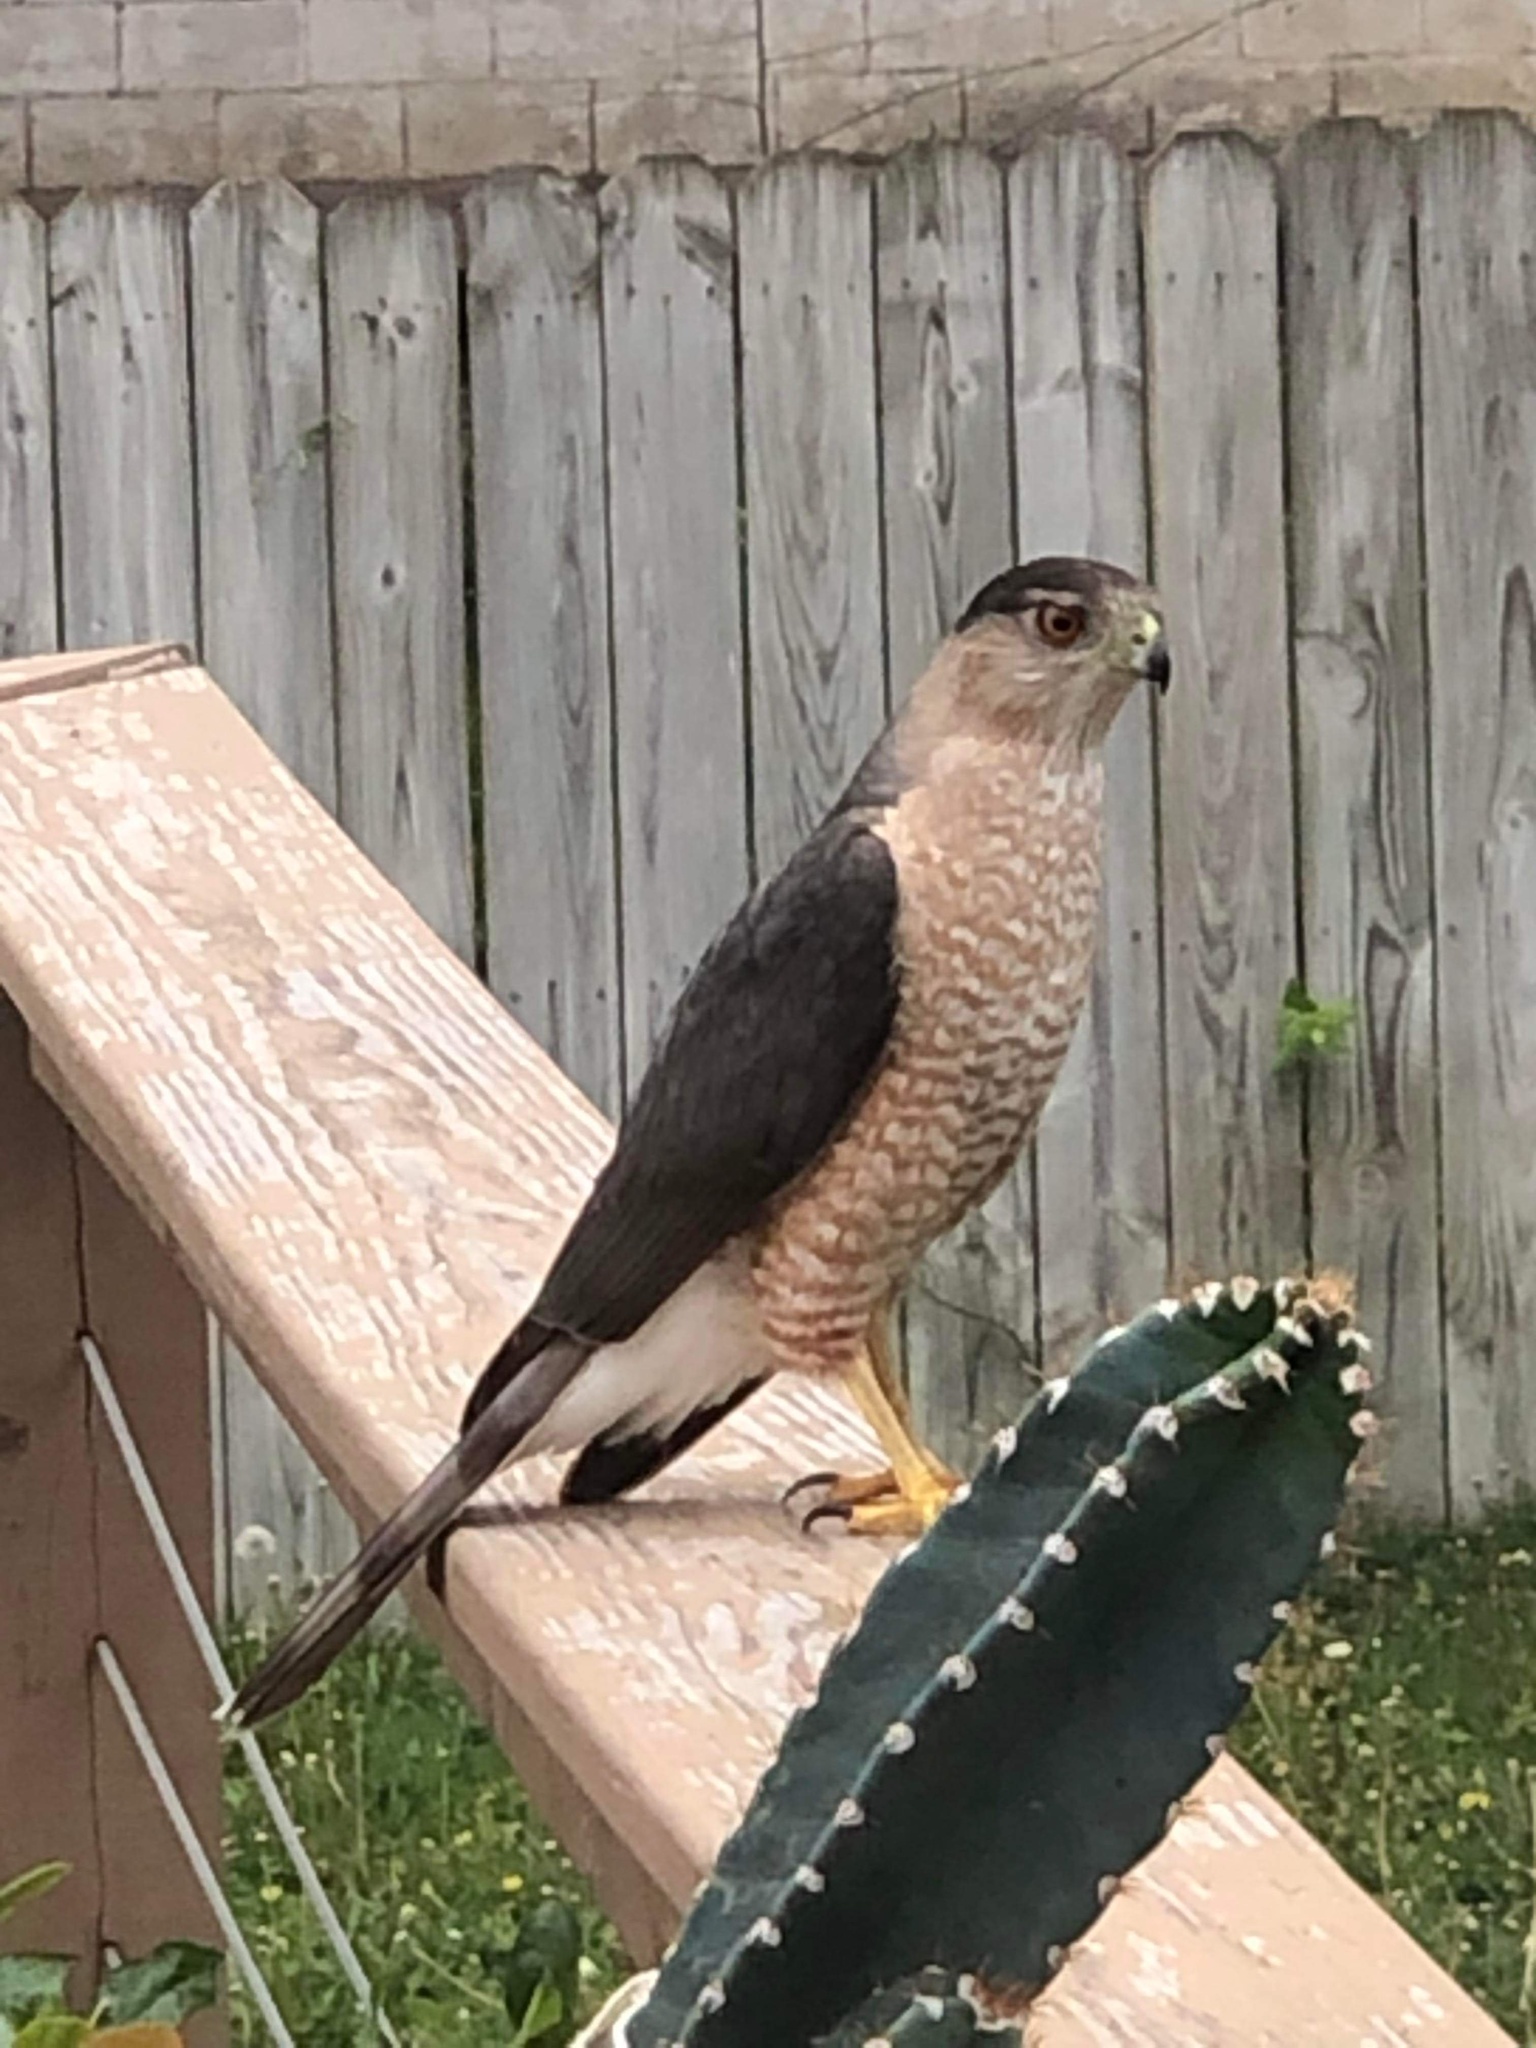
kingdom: Animalia
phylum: Chordata
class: Aves
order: Accipitriformes
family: Accipitridae
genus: Accipiter
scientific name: Accipiter cooperii
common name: Cooper's hawk
